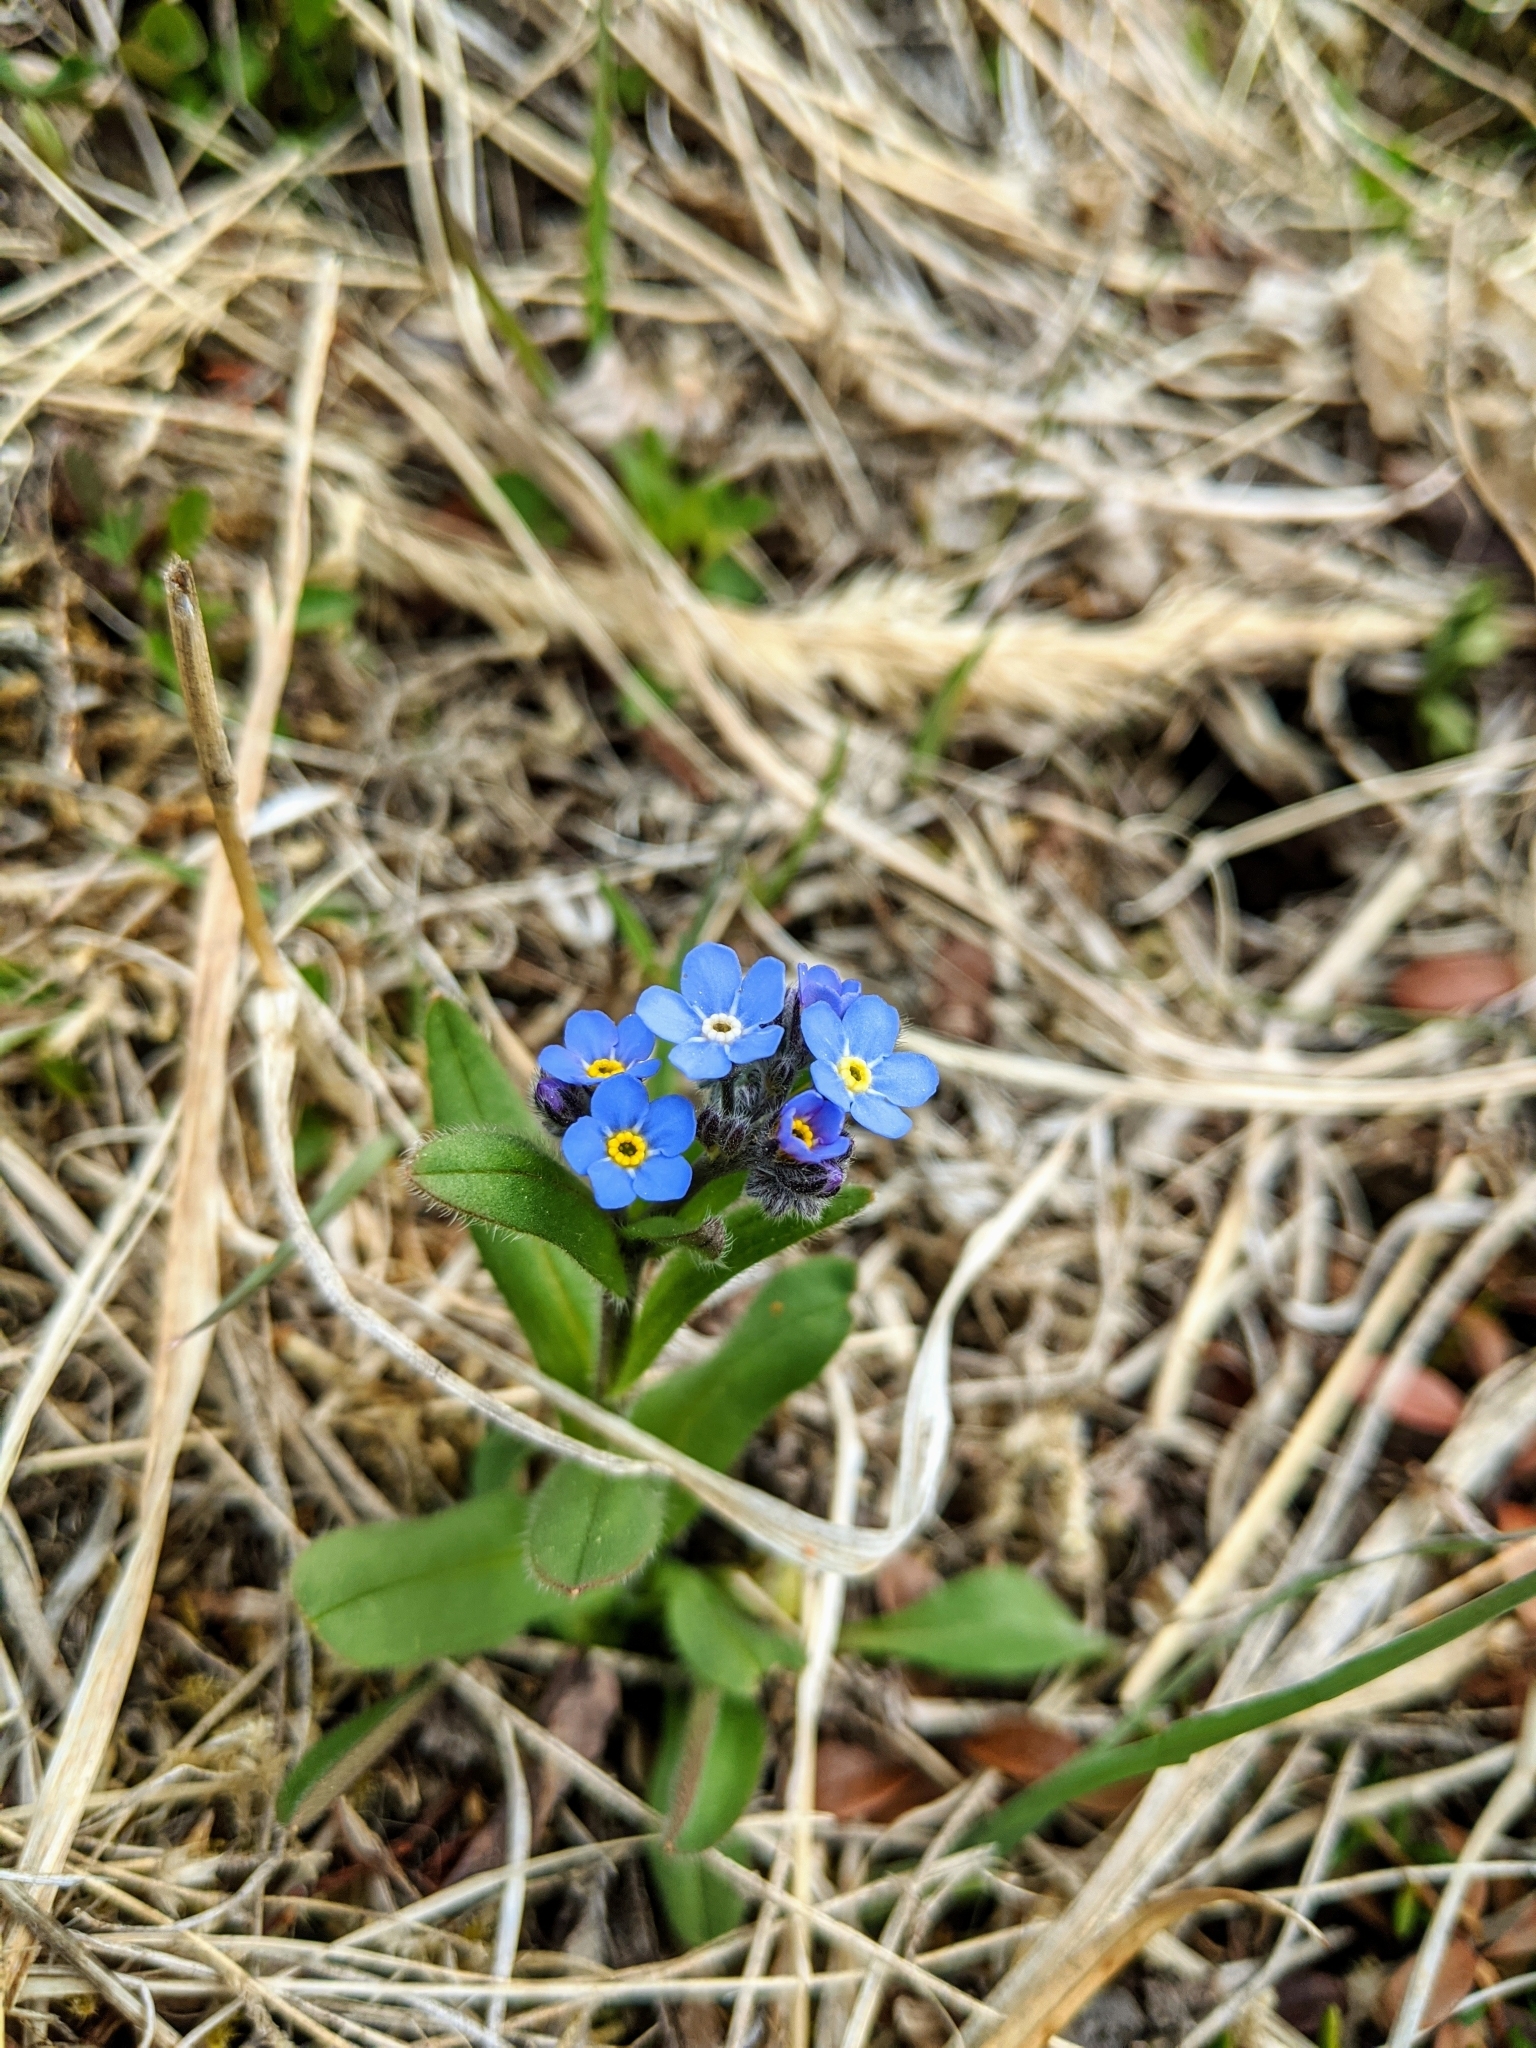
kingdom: Plantae
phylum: Tracheophyta
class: Magnoliopsida
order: Boraginales
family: Boraginaceae
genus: Myosotis
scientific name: Myosotis asiatica
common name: Asian forget-me-not
